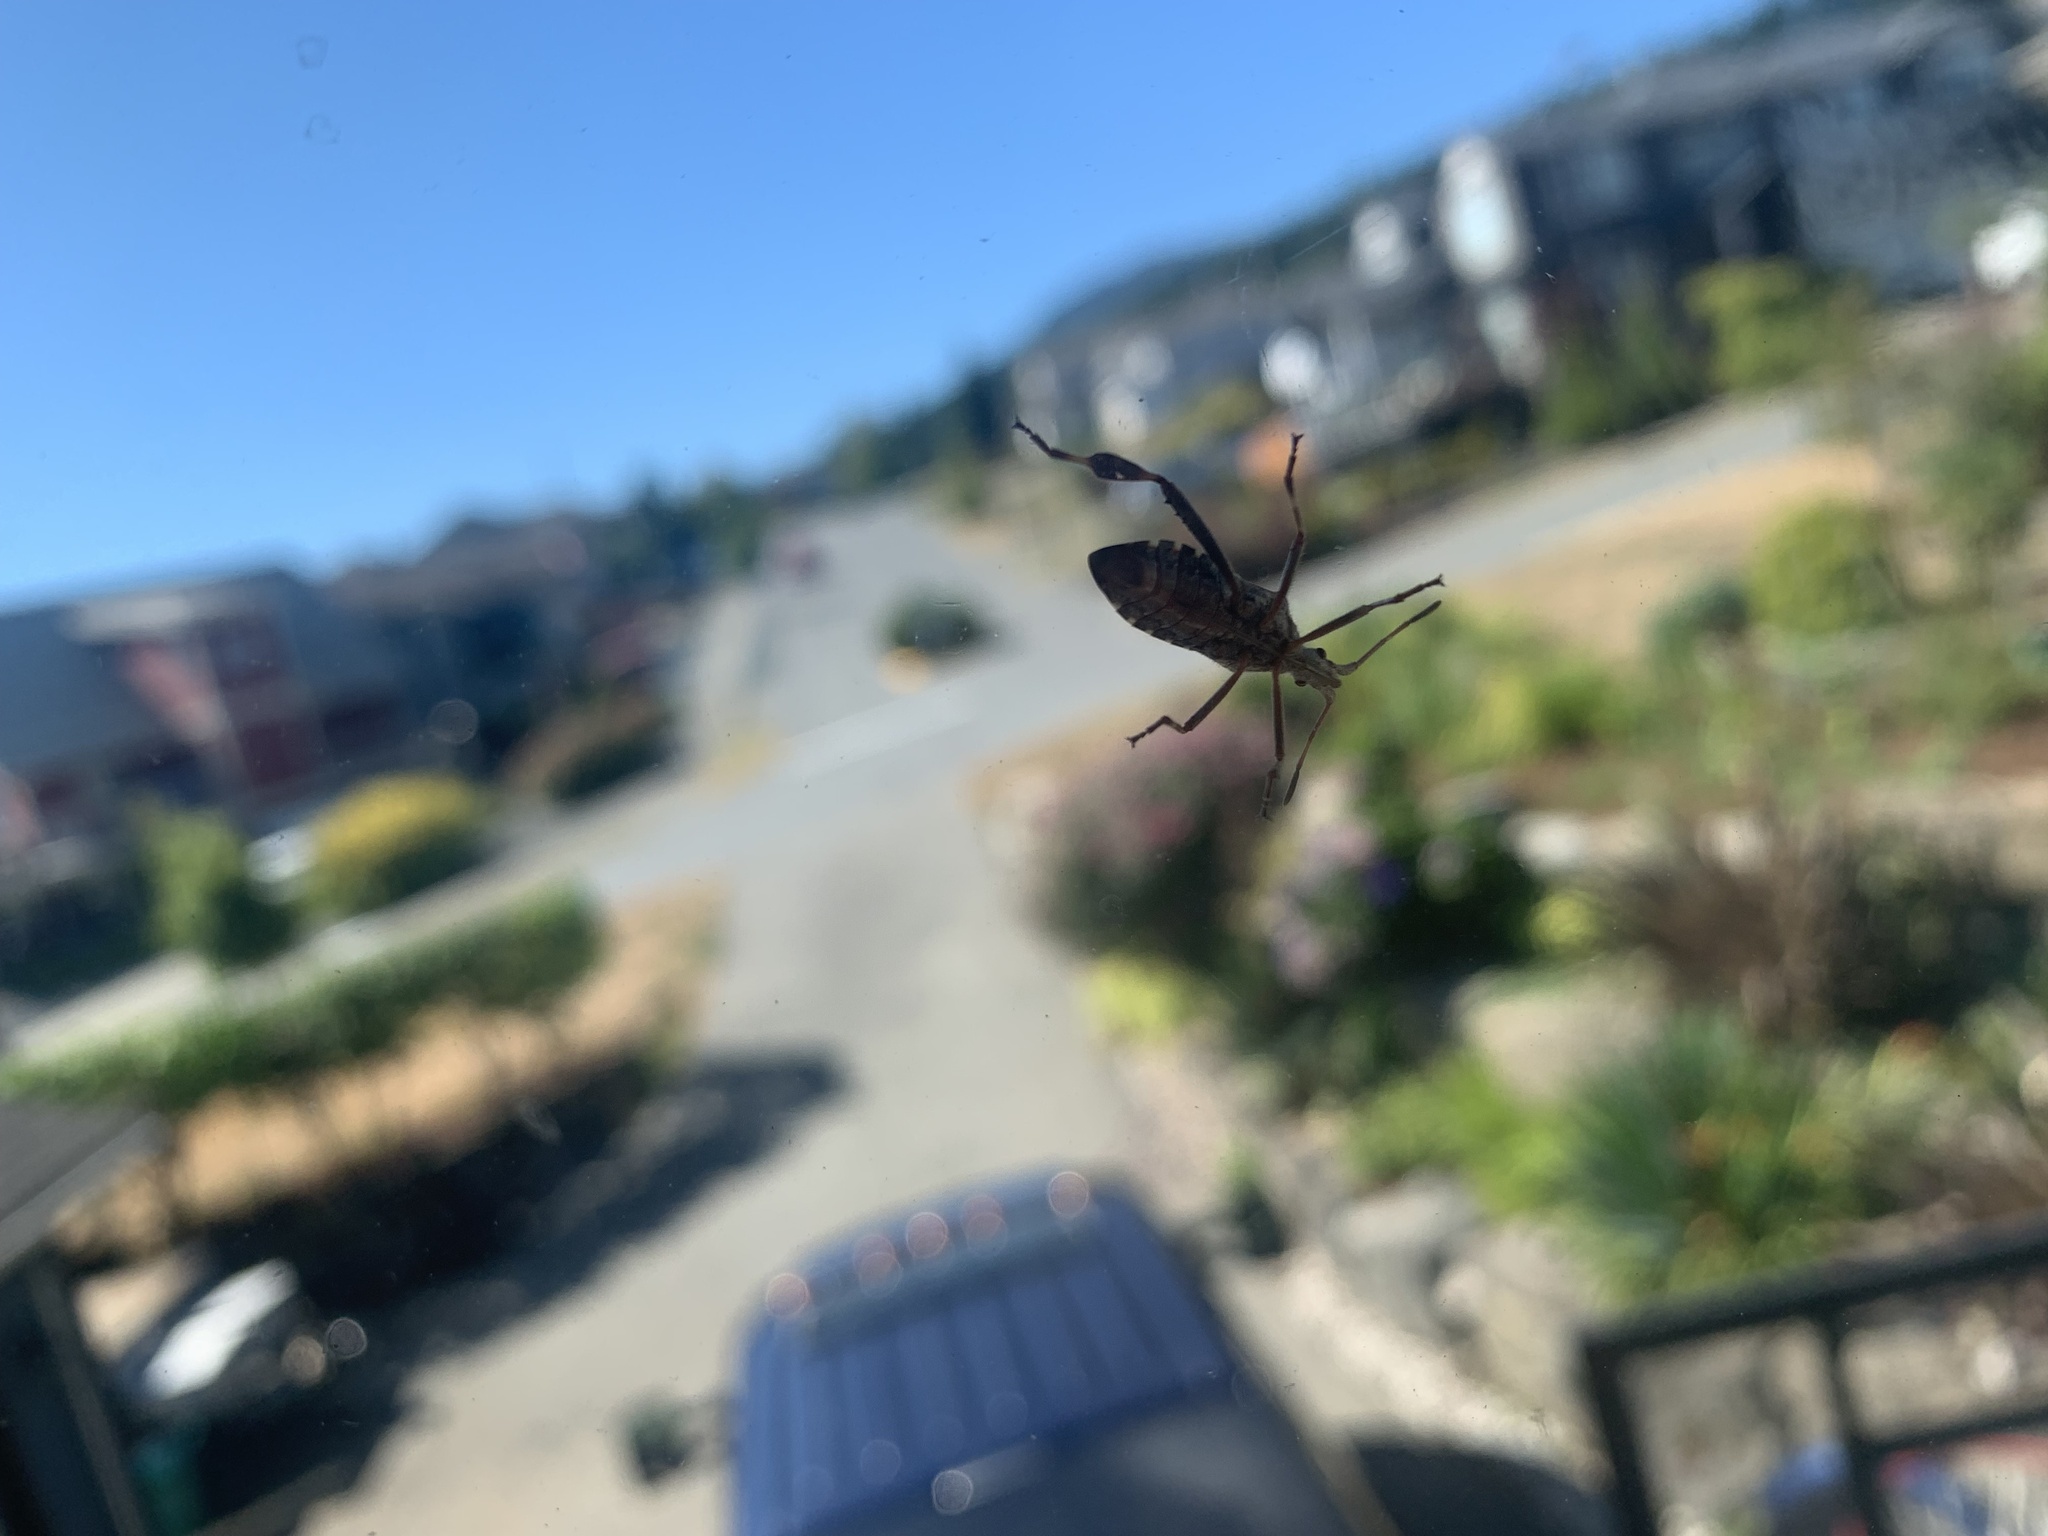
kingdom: Animalia
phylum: Arthropoda
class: Insecta
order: Hemiptera
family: Coreidae
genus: Leptoglossus
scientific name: Leptoglossus occidentalis
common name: Western conifer-seed bug
